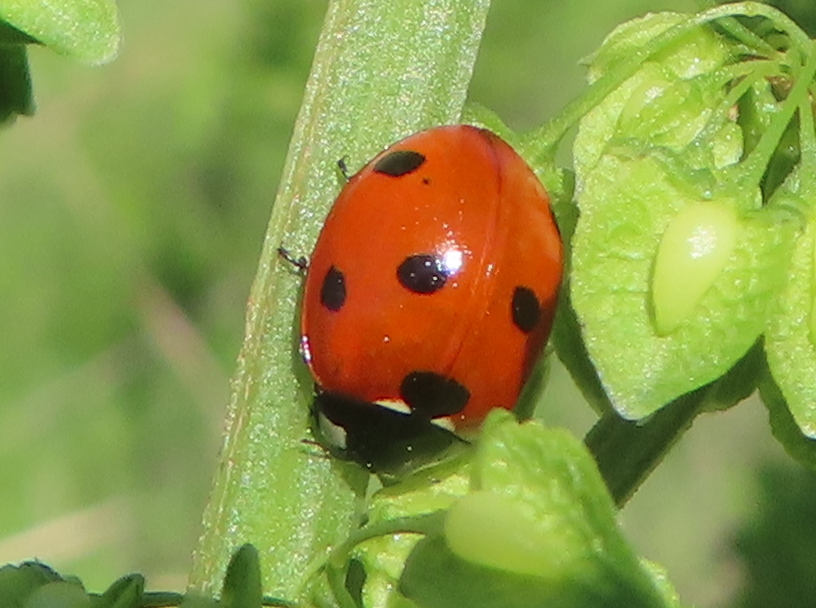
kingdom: Animalia
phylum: Arthropoda
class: Insecta
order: Coleoptera
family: Coccinellidae
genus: Coccinella
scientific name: Coccinella septempunctata
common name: Sevenspotted lady beetle
